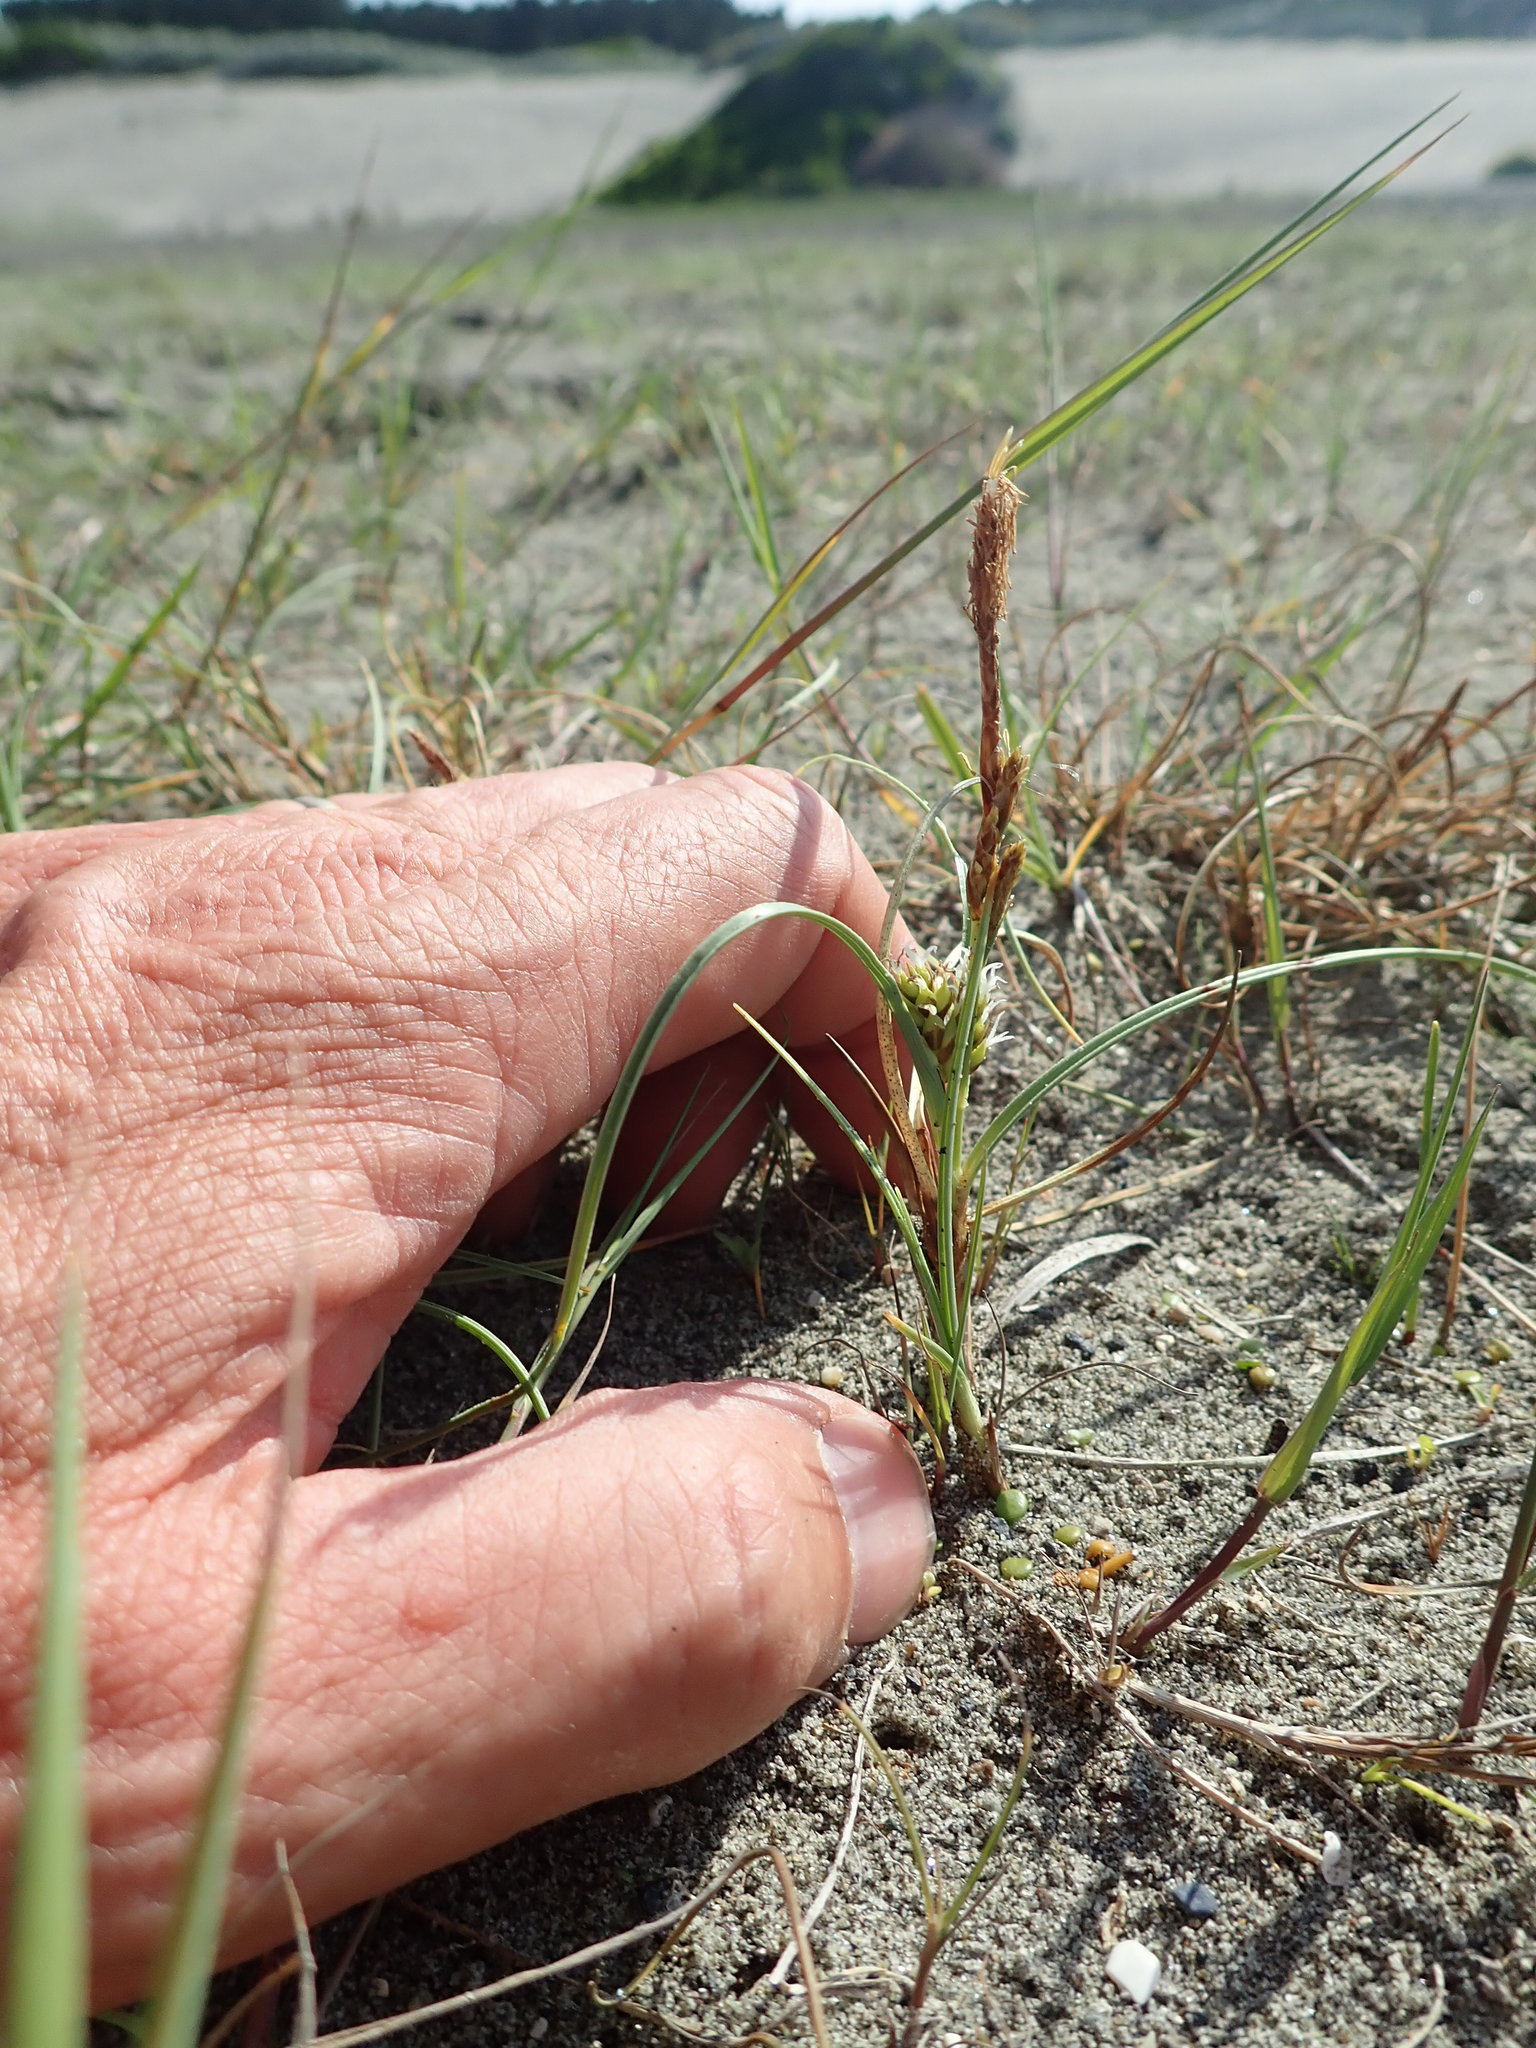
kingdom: Plantae
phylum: Tracheophyta
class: Liliopsida
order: Poales
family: Cyperaceae
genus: Carex
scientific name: Carex pumila
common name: Dwarf sedge
